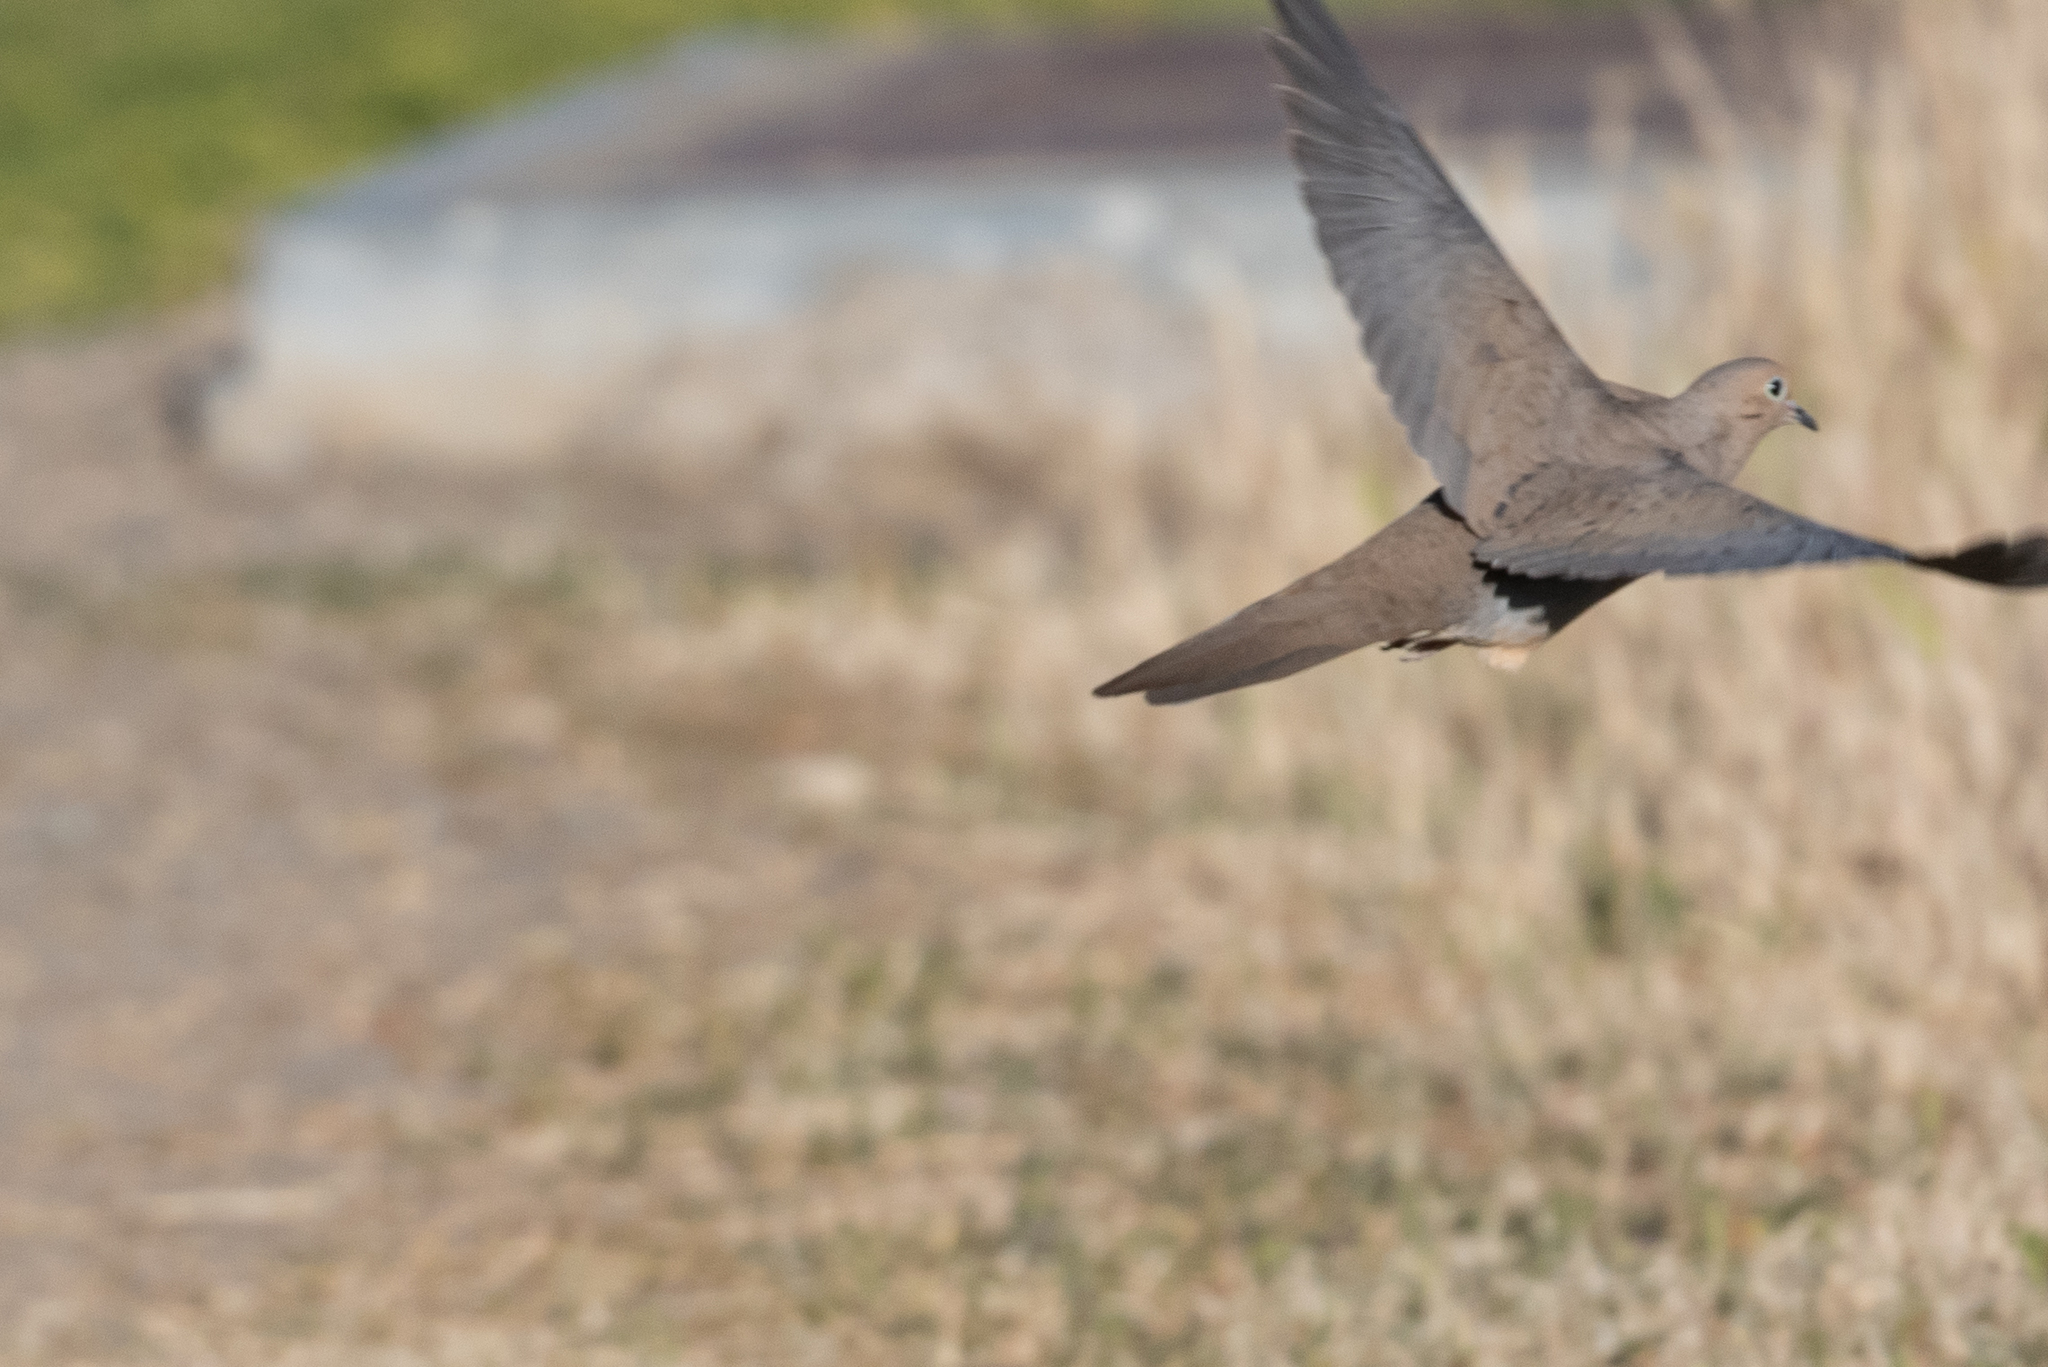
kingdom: Animalia
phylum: Chordata
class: Aves
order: Columbiformes
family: Columbidae
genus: Zenaida
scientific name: Zenaida macroura
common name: Mourning dove
